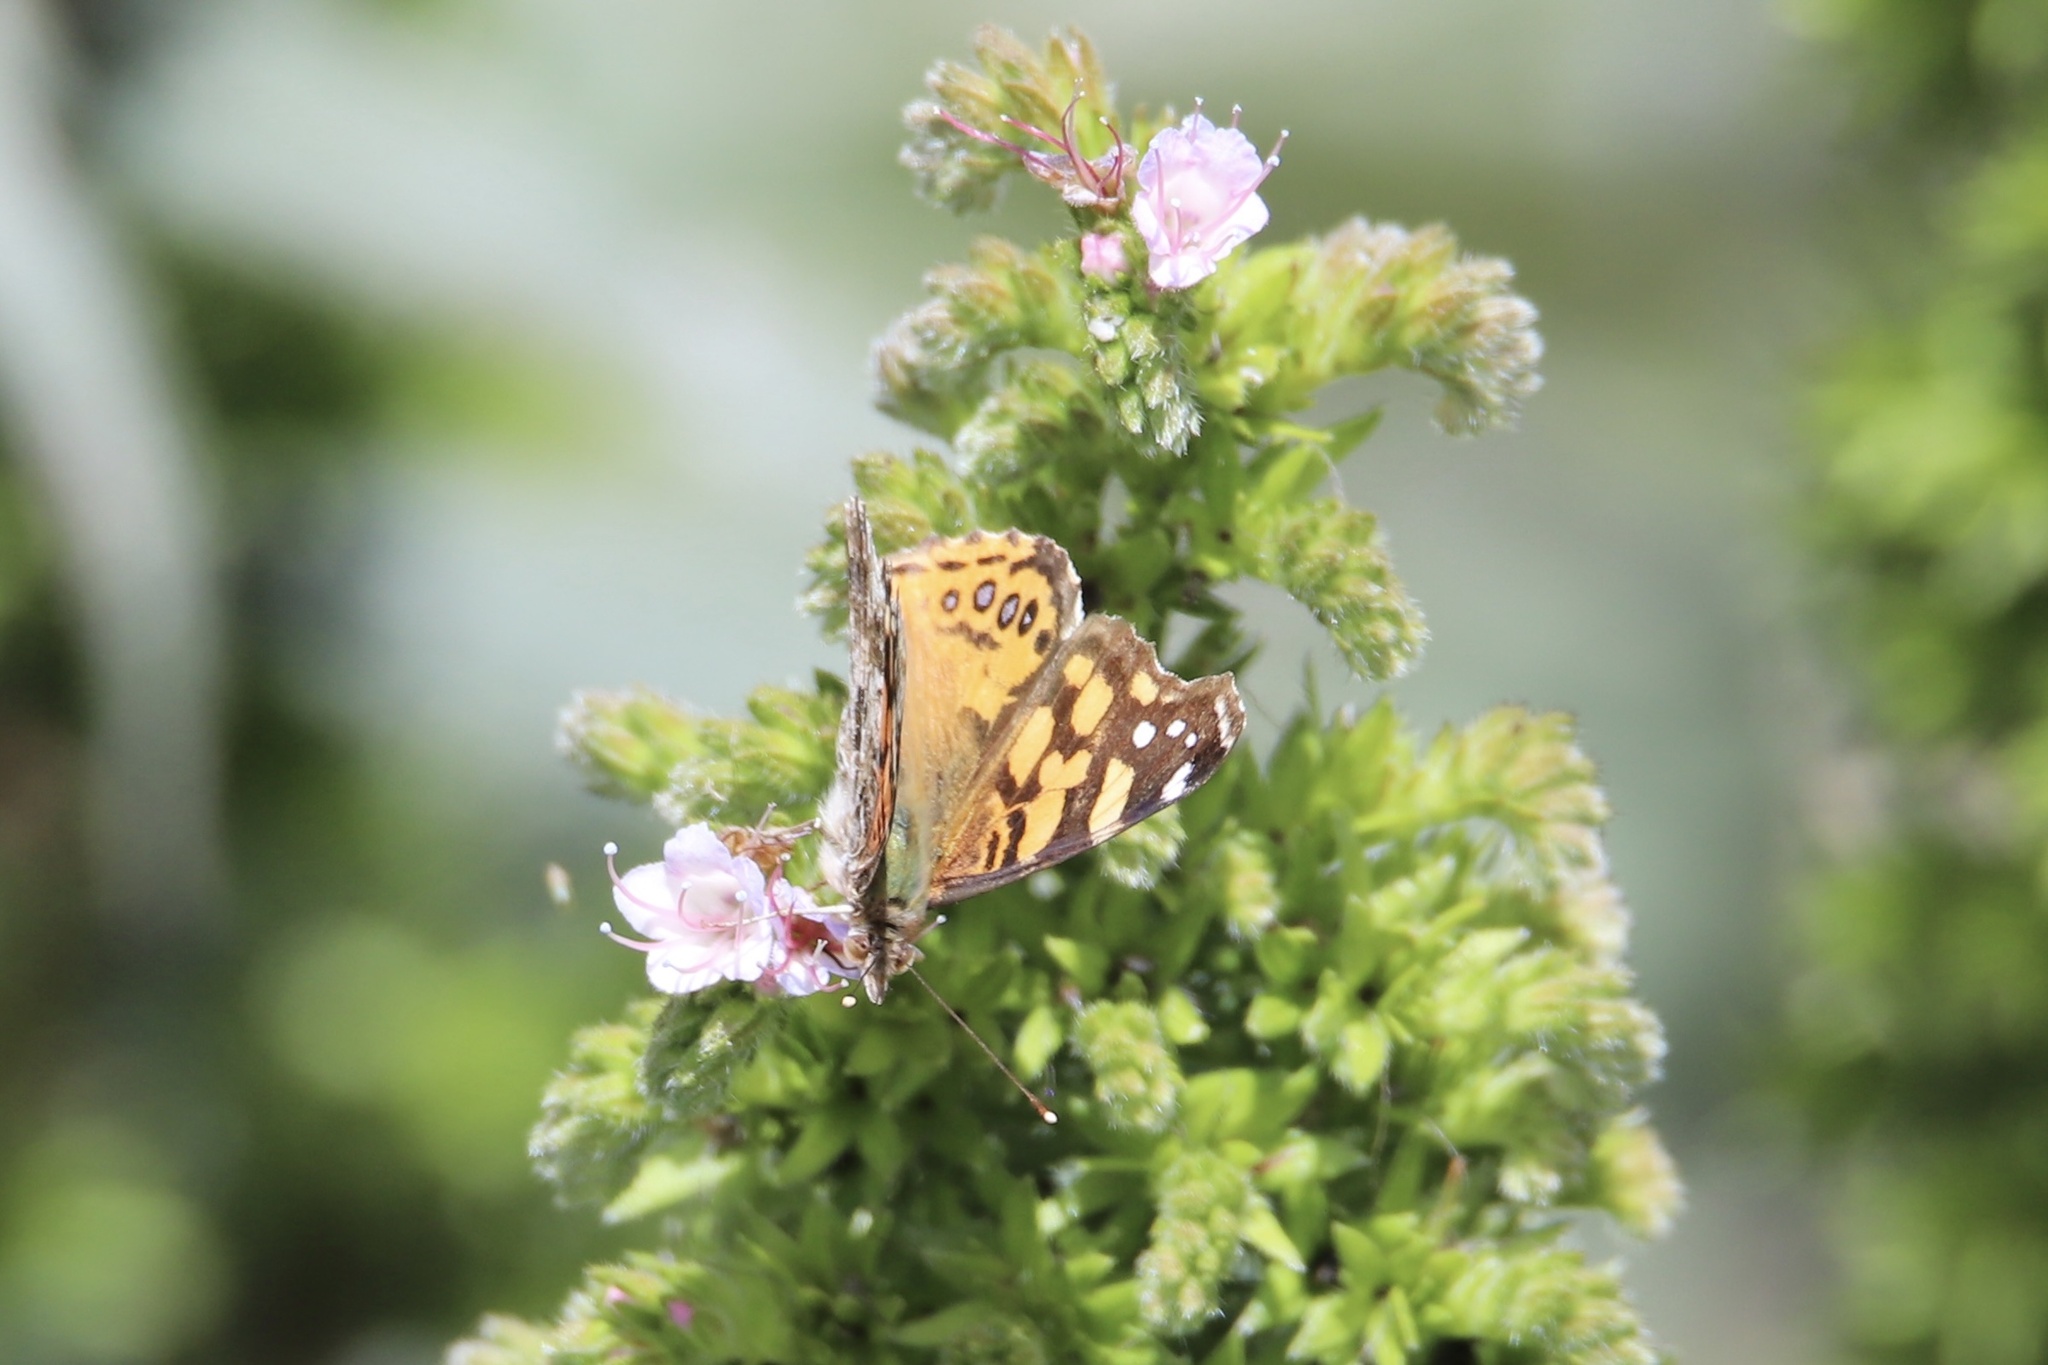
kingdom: Animalia
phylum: Arthropoda
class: Insecta
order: Lepidoptera
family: Nymphalidae
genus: Vanessa
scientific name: Vanessa annabella
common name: West coast lady
